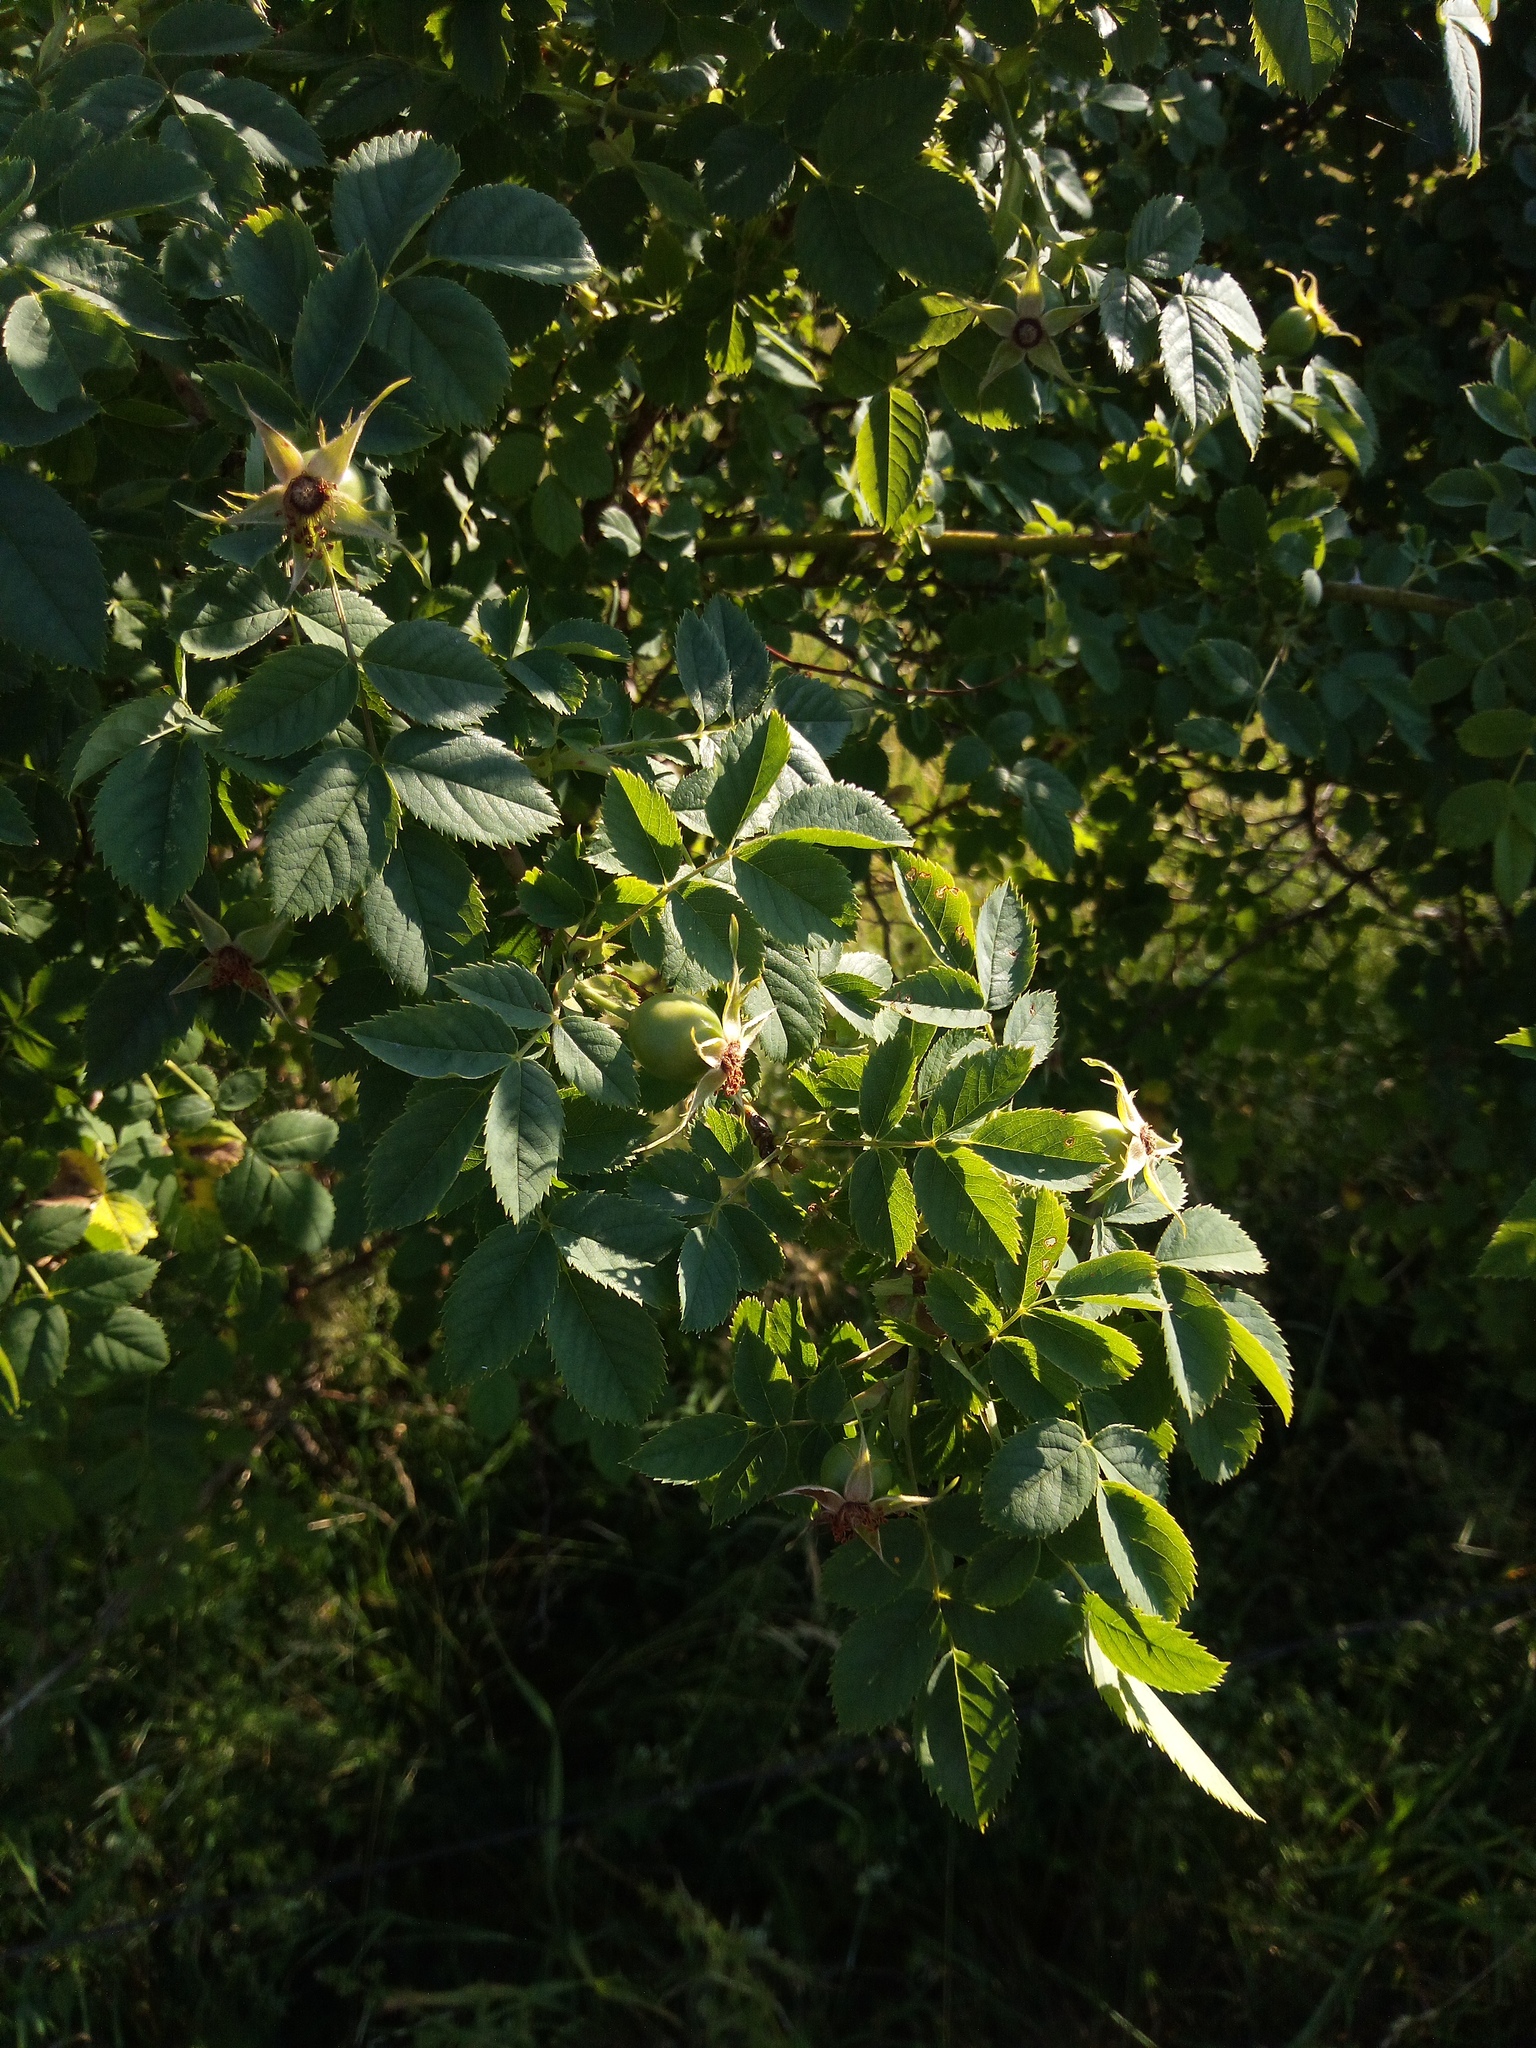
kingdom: Plantae
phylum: Tracheophyta
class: Magnoliopsida
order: Rosales
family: Rosaceae
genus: Rosa
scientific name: Rosa subcanina
